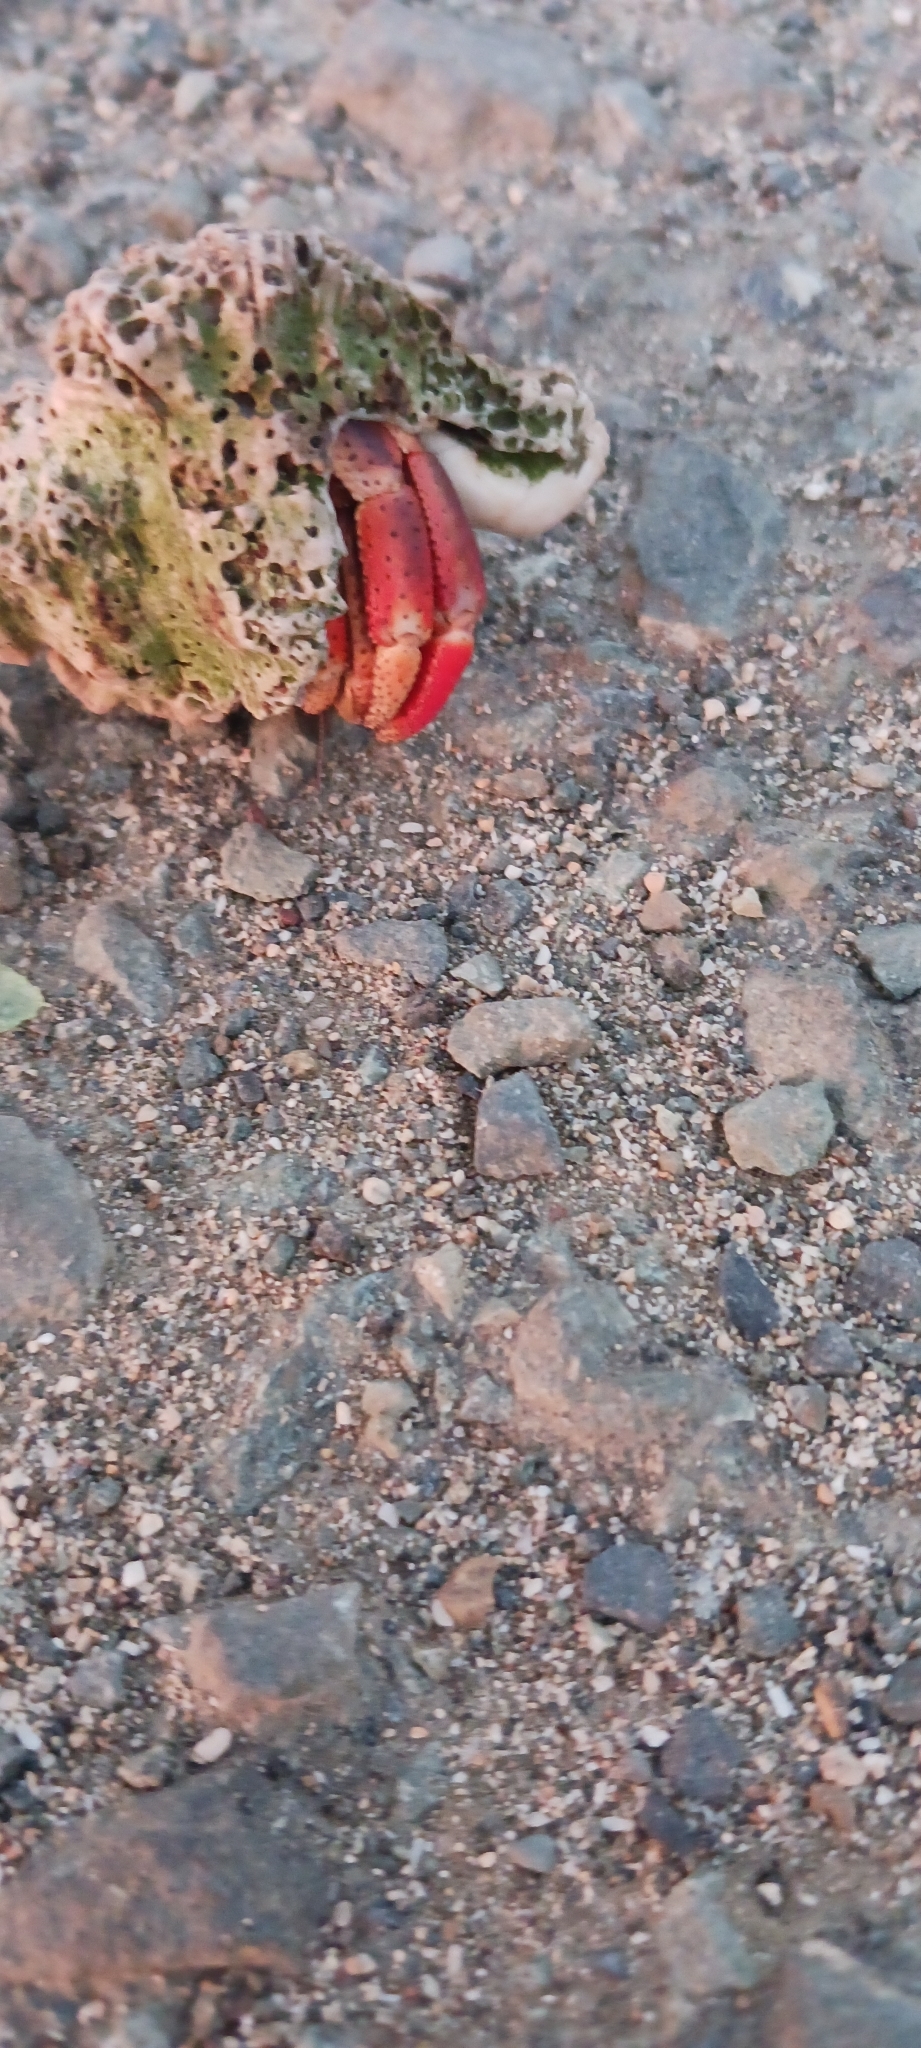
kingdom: Animalia
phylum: Arthropoda
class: Malacostraca
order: Decapoda
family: Coenobitidae
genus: Coenobita
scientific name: Coenobita clypeatus
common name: Caribbean hermit crab
